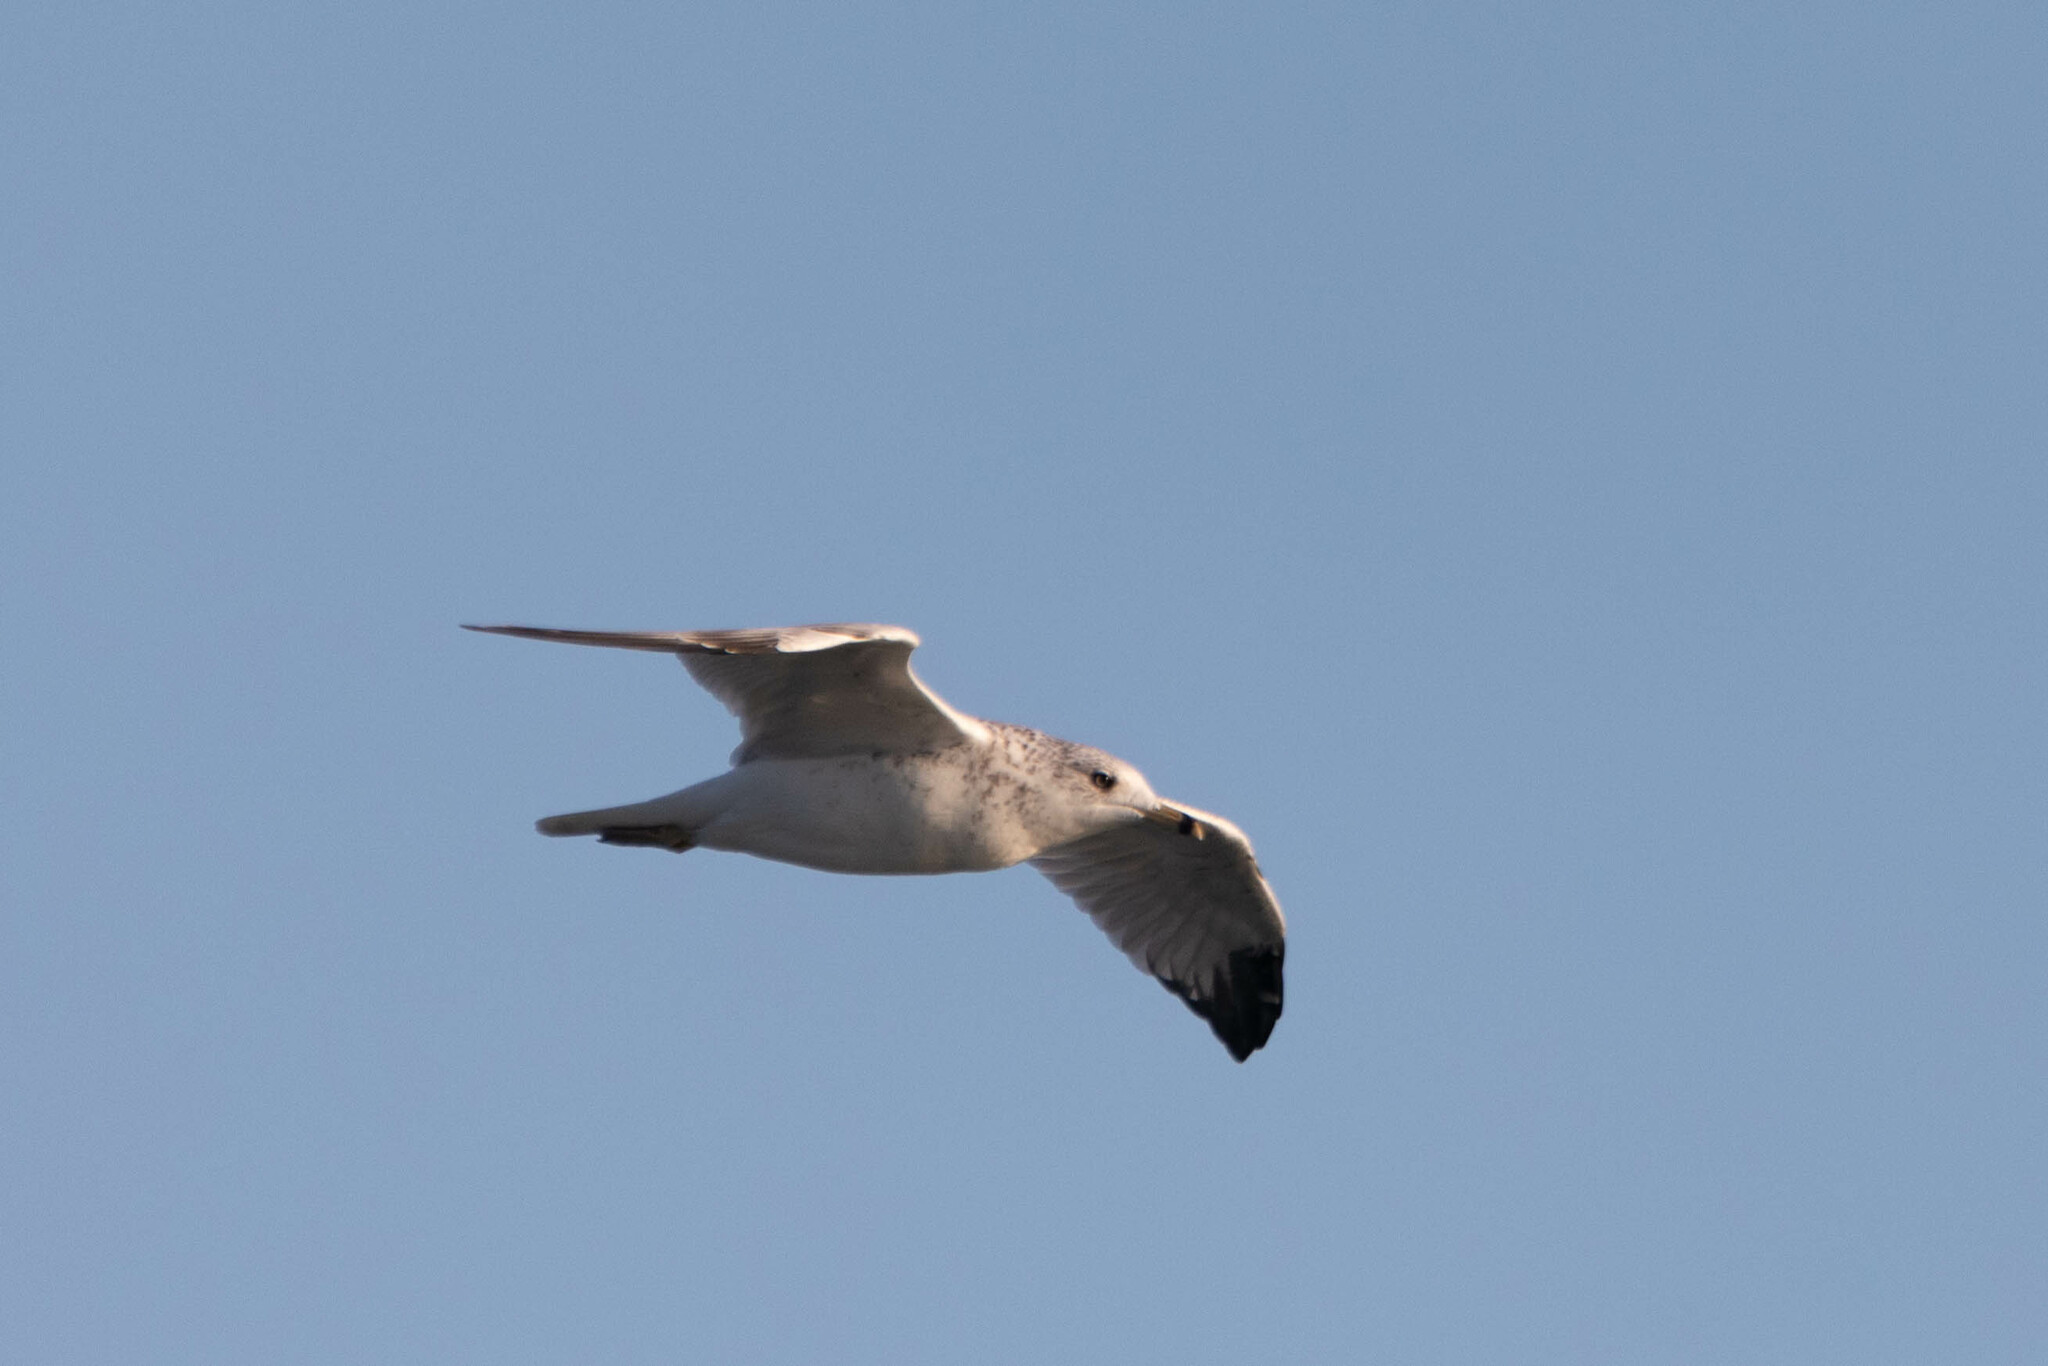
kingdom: Animalia
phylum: Chordata
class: Aves
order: Charadriiformes
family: Laridae
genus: Larus
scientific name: Larus delawarensis
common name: Ring-billed gull
